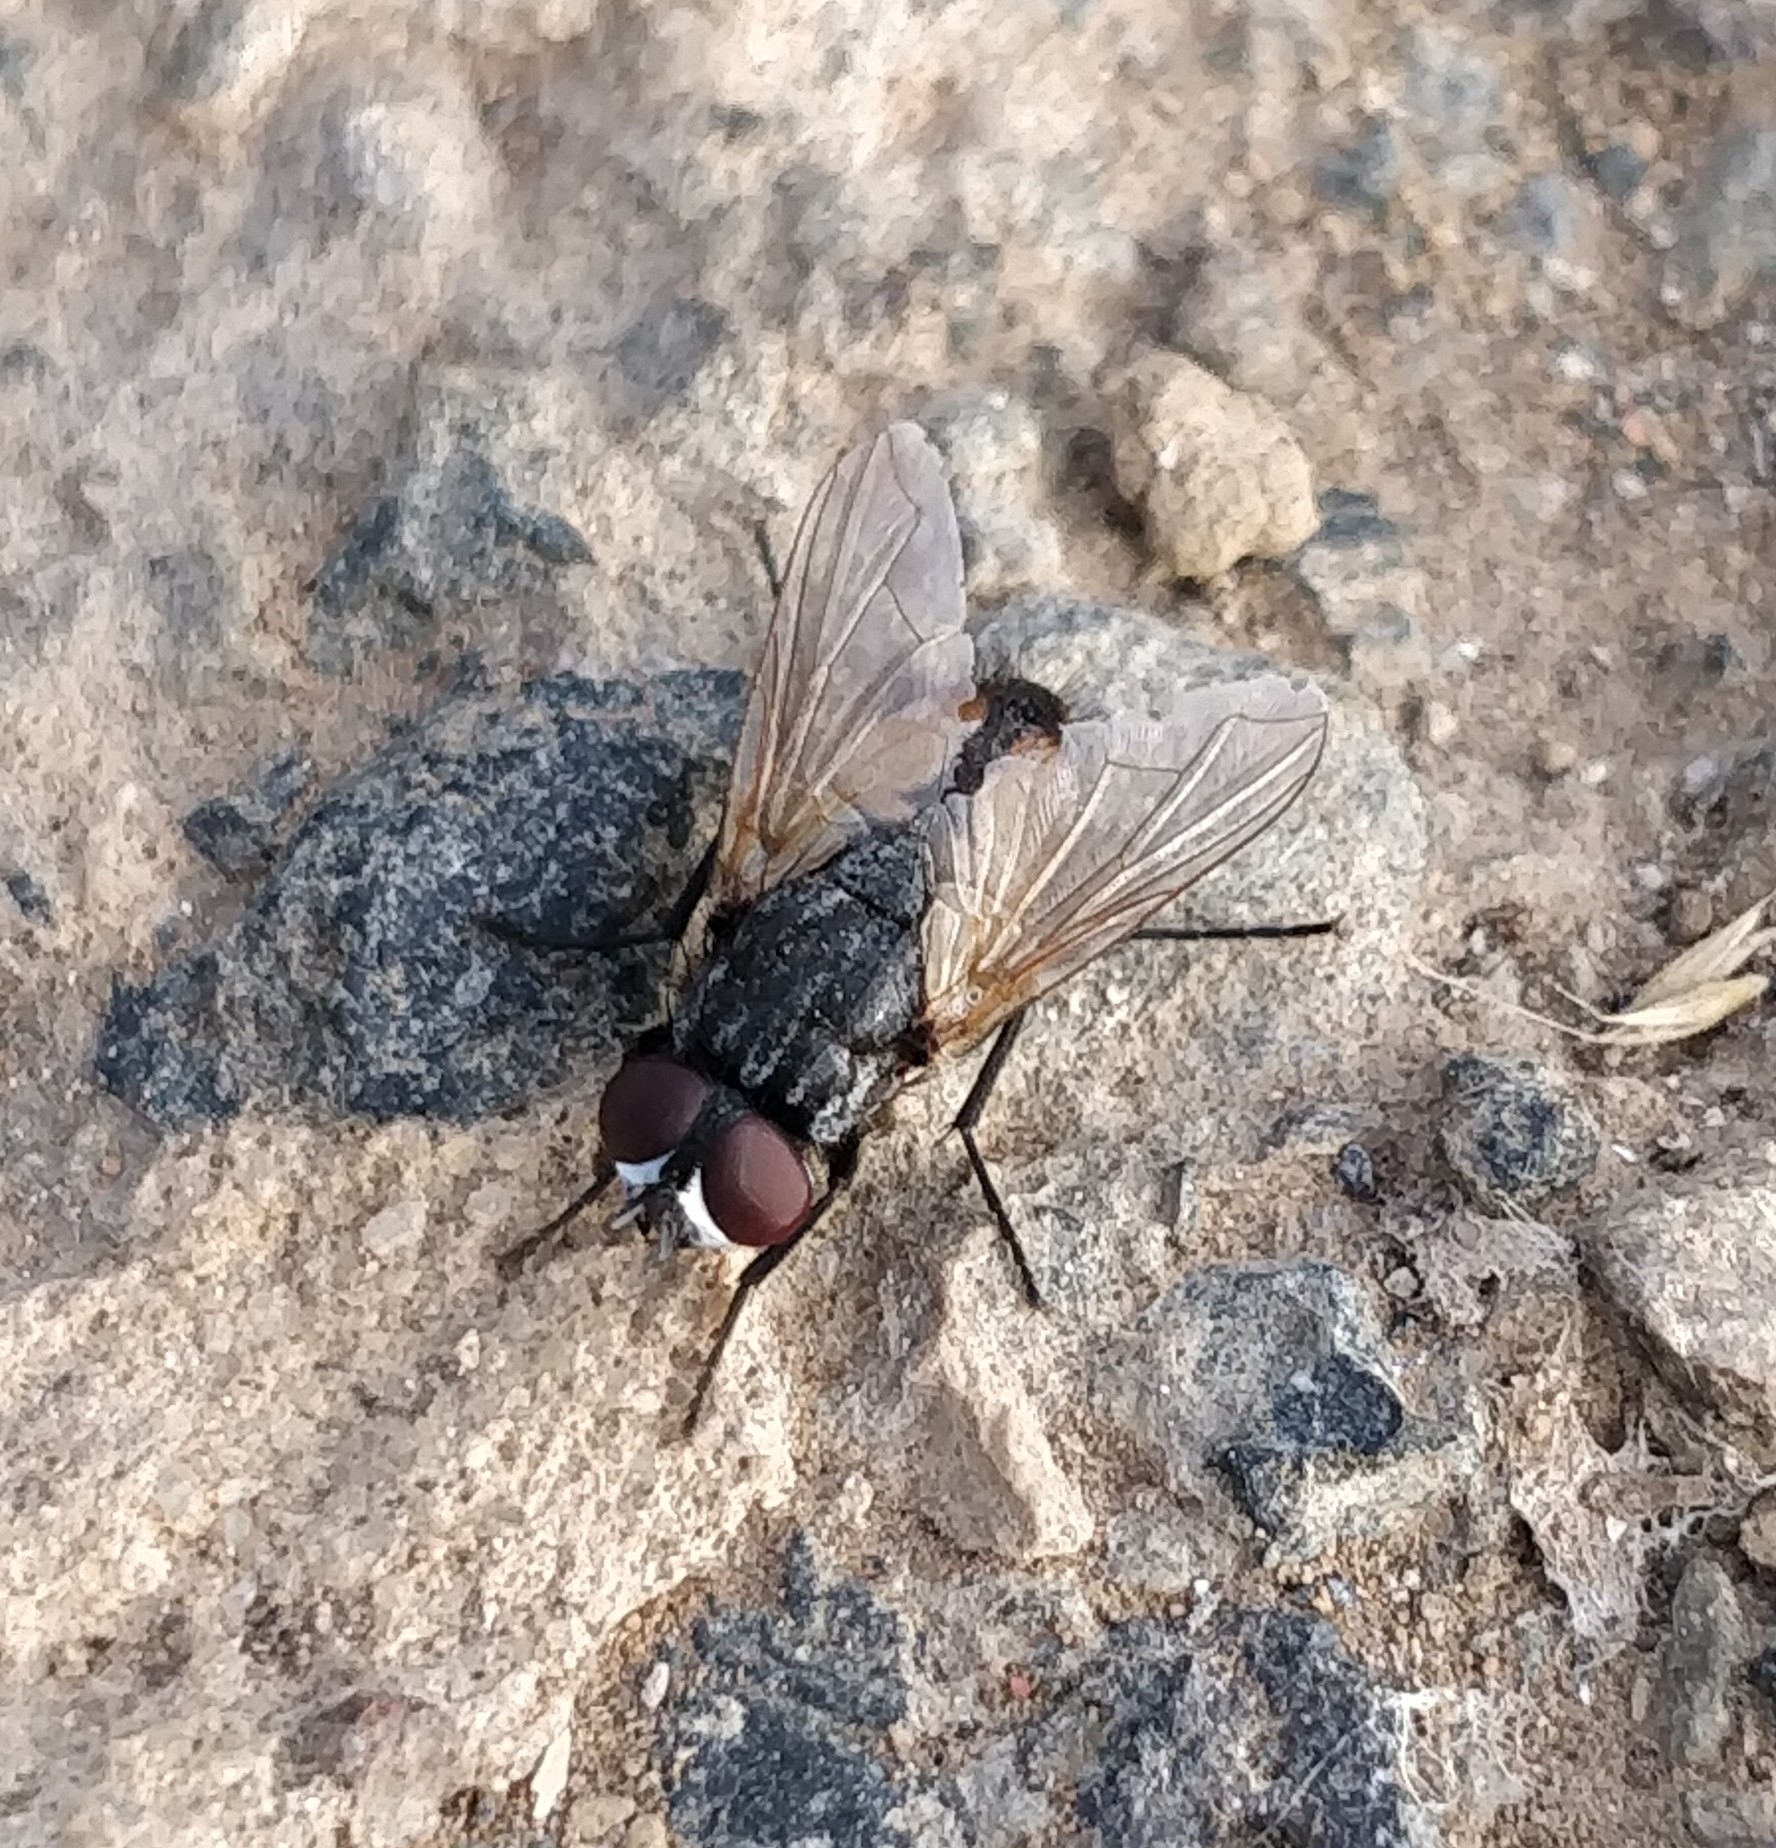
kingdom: Animalia
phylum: Arthropoda
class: Insecta
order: Diptera
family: Muscidae
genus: Musca
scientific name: Musca domestica
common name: House fly
